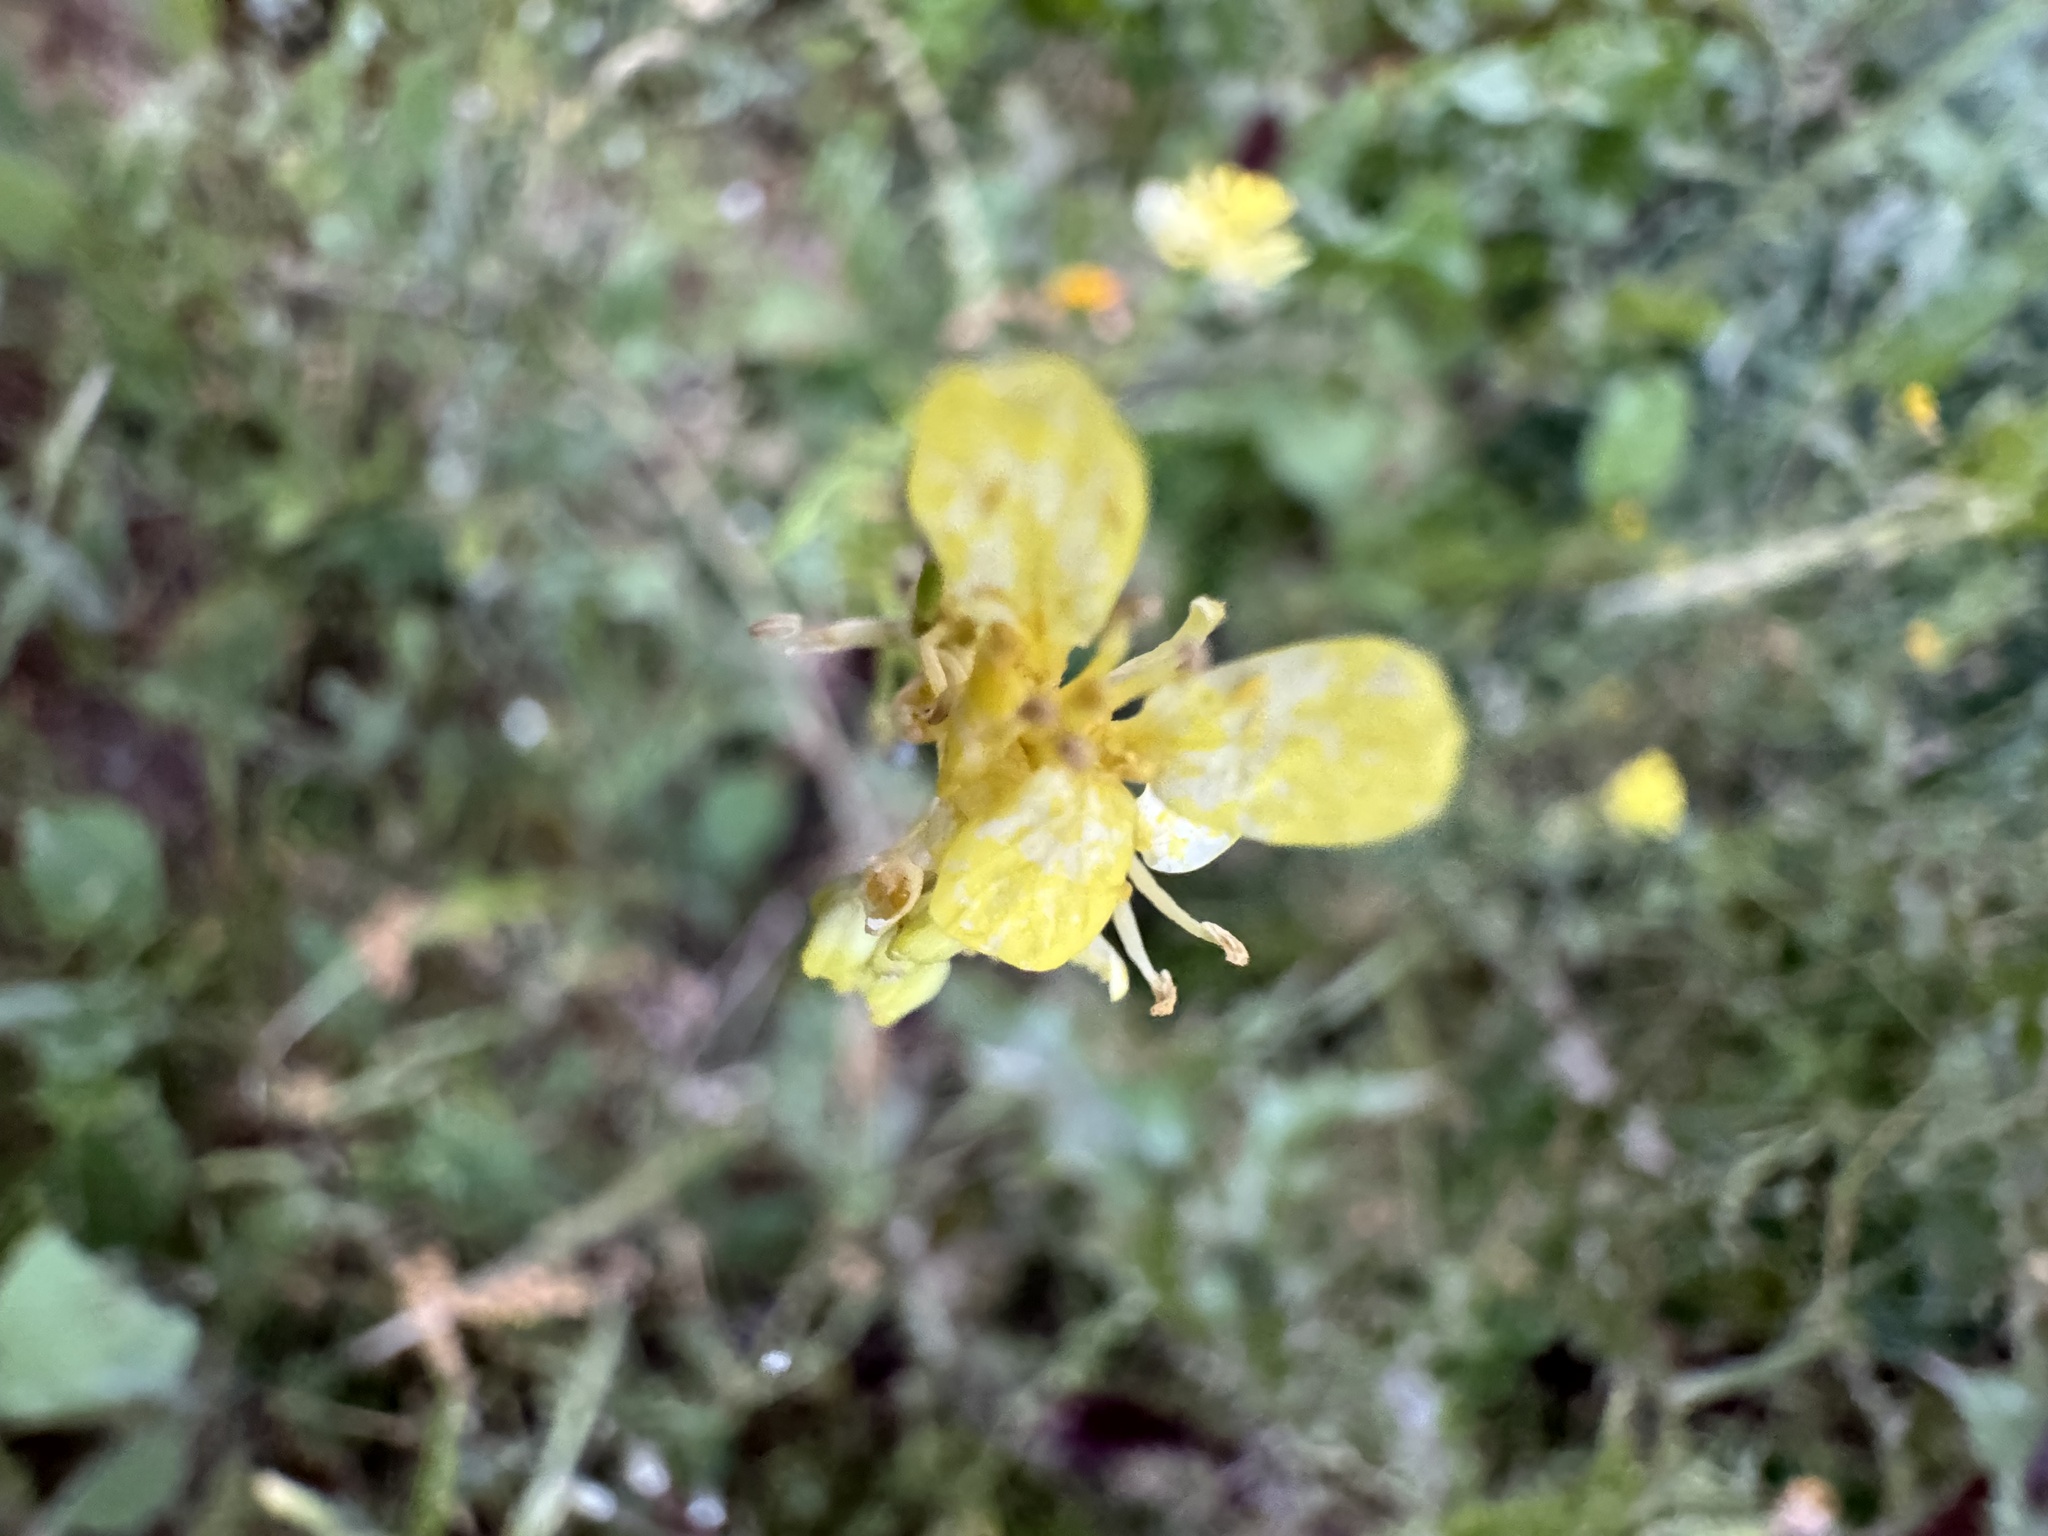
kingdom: Plantae
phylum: Tracheophyta
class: Magnoliopsida
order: Brassicales
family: Brassicaceae
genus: Hirschfeldia
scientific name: Hirschfeldia incana
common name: Hoary mustard
